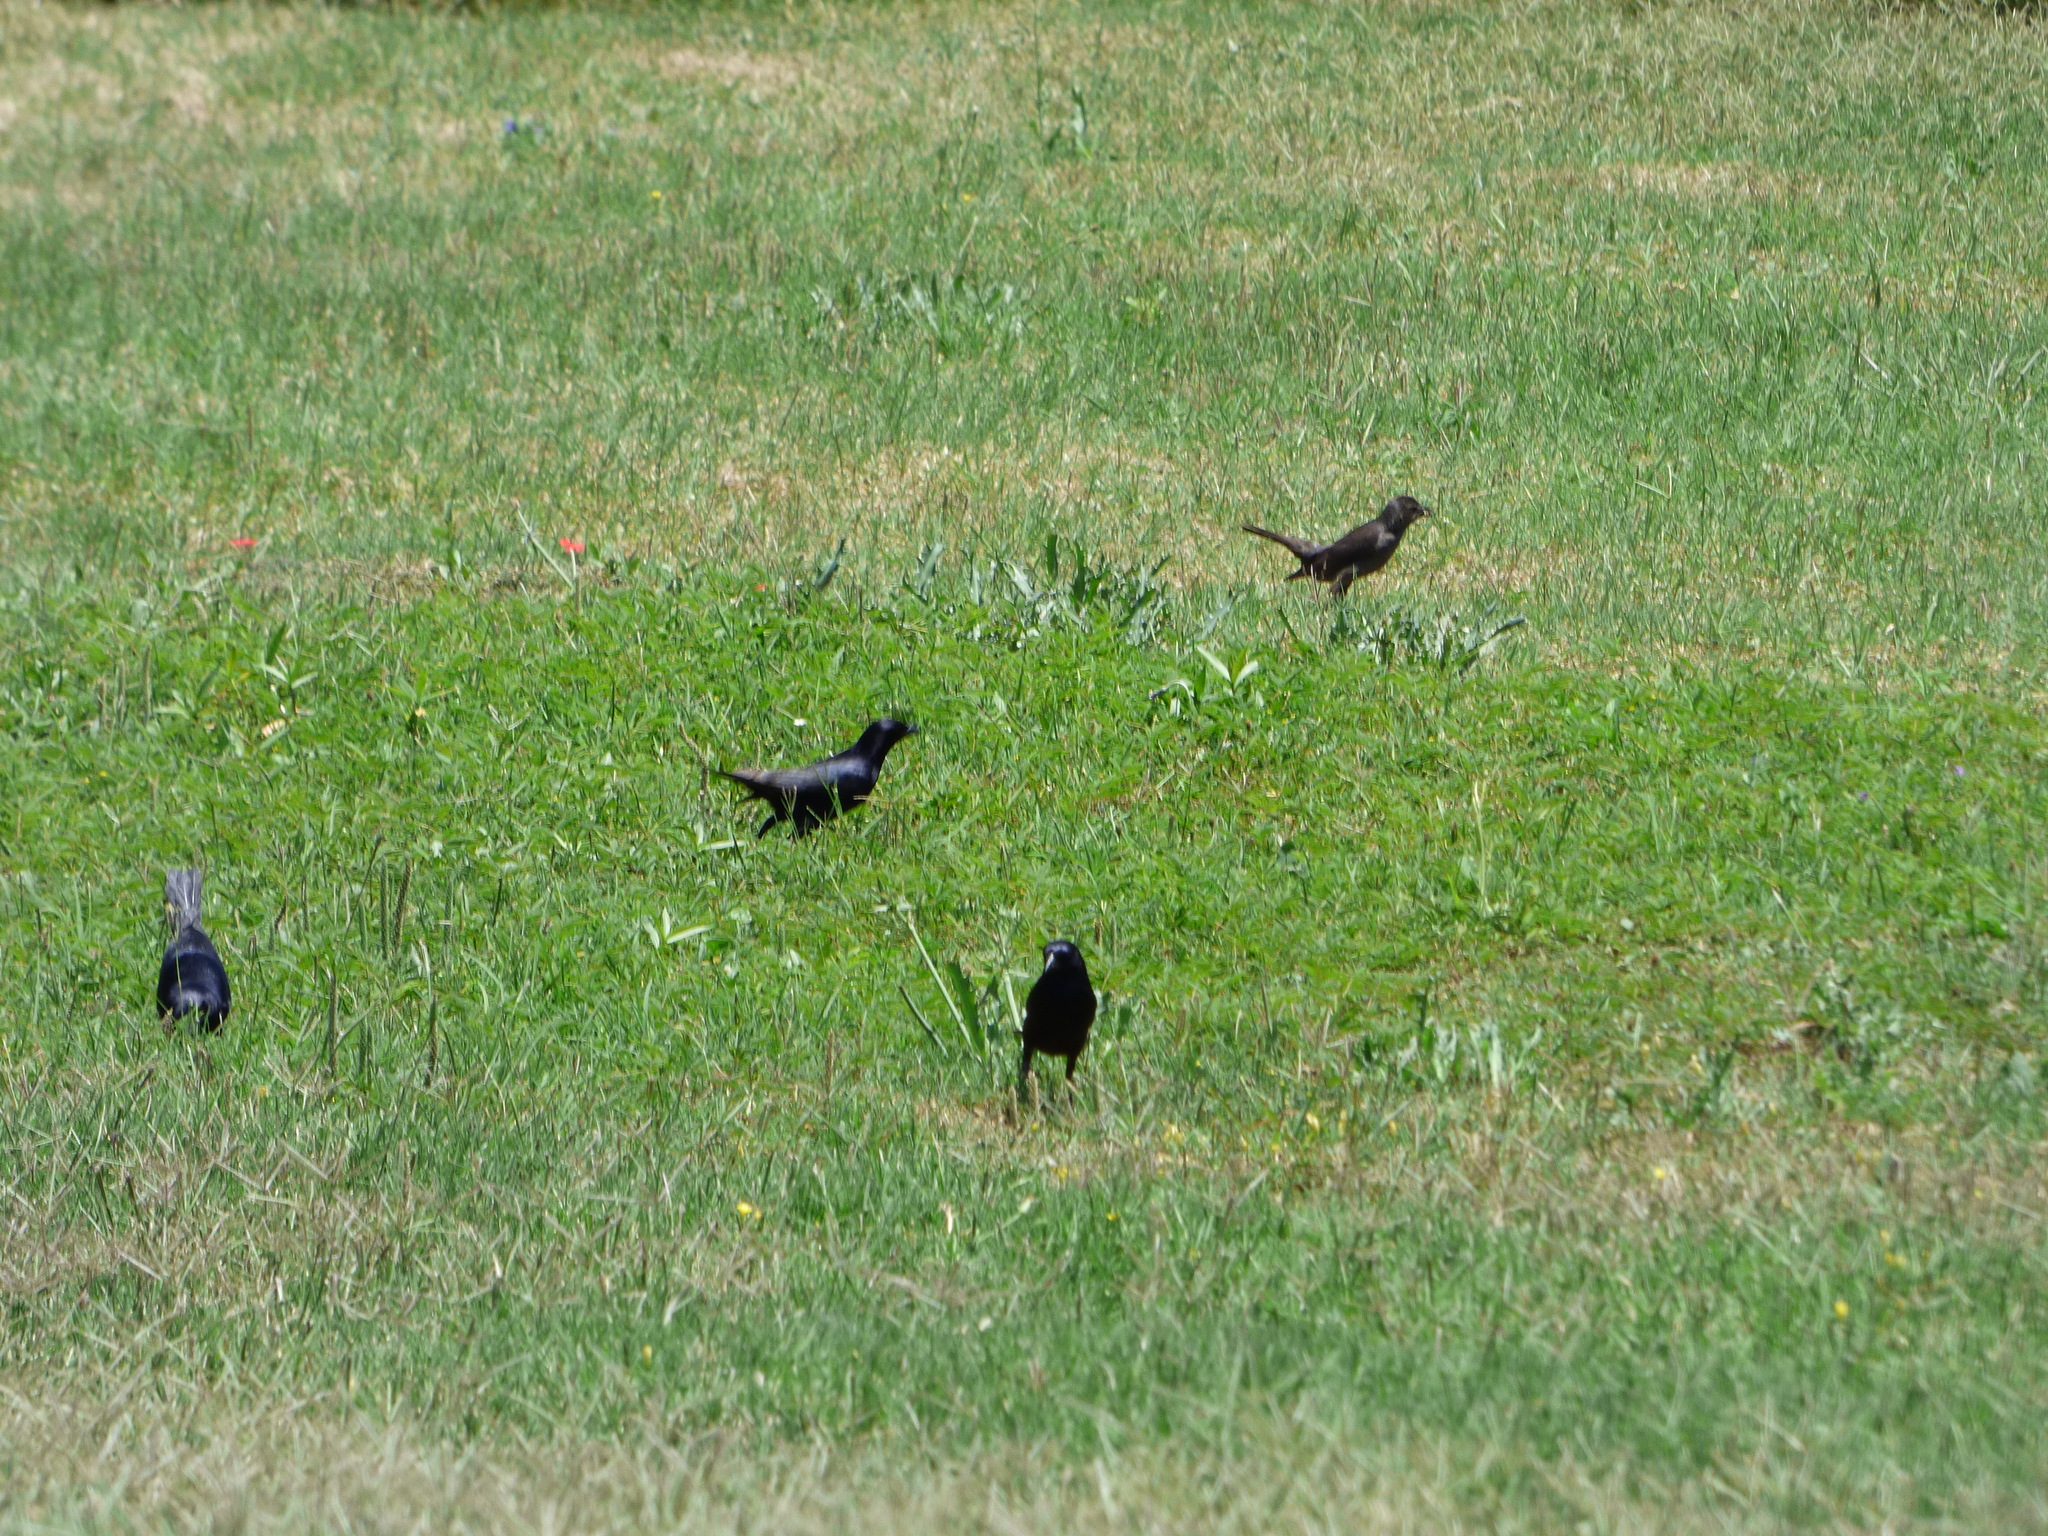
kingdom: Animalia
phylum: Chordata
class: Aves
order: Passeriformes
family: Icteridae
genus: Molothrus
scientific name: Molothrus bonariensis
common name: Shiny cowbird
